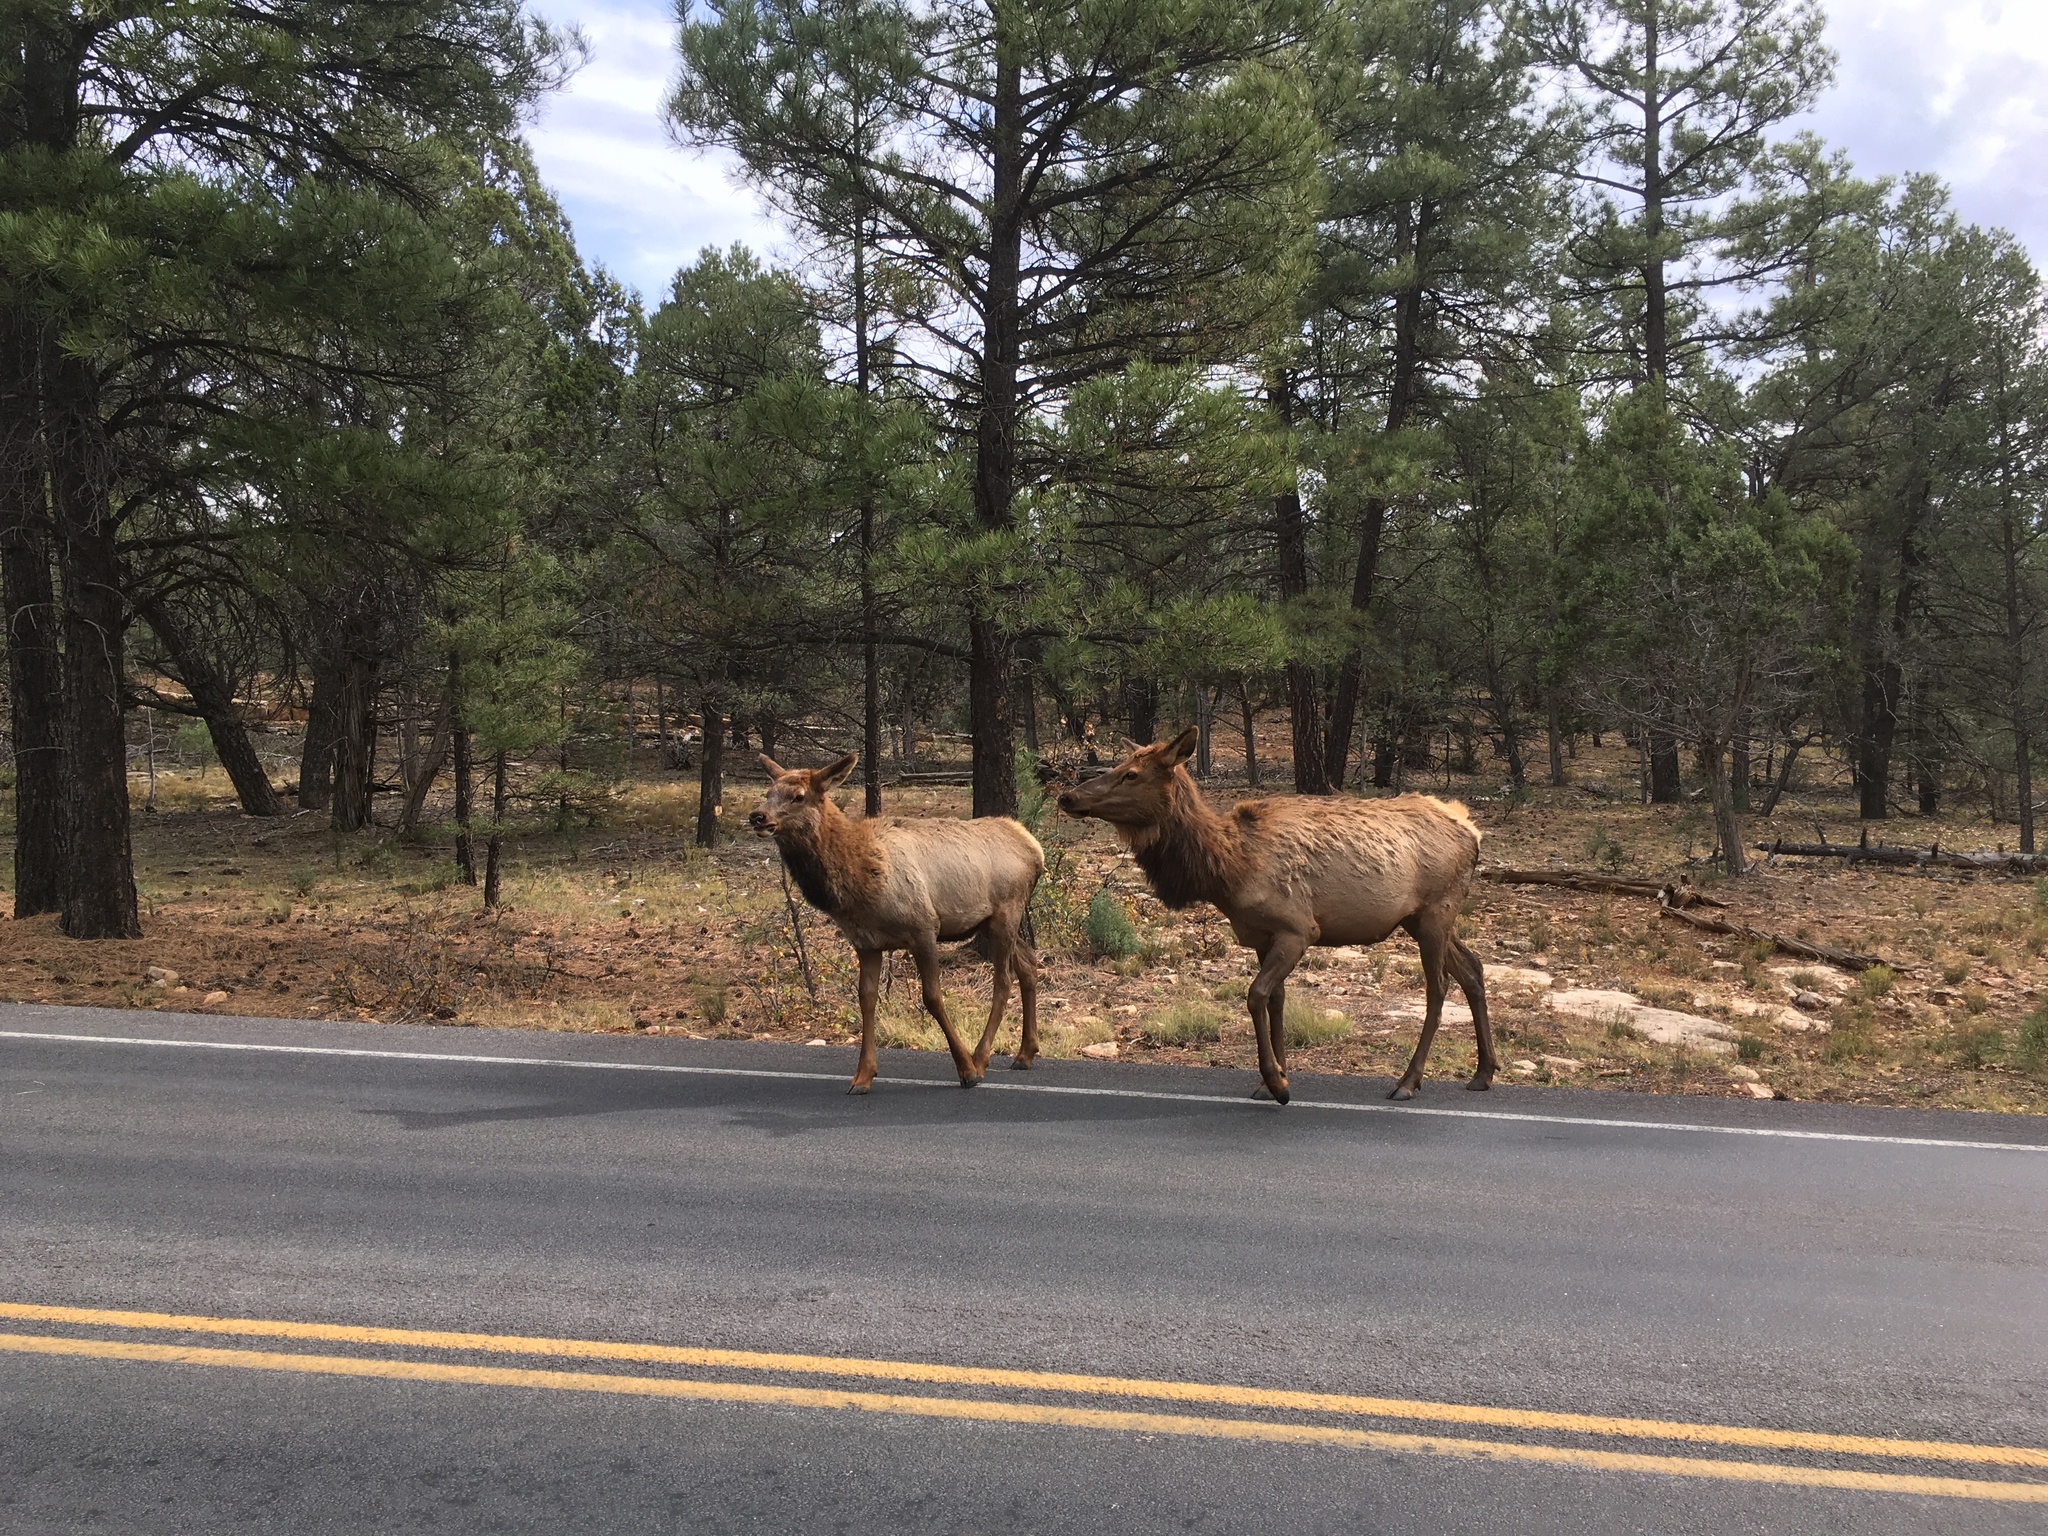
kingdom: Animalia
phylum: Chordata
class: Mammalia
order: Artiodactyla
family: Cervidae
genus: Cervus
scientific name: Cervus elaphus
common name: Red deer
